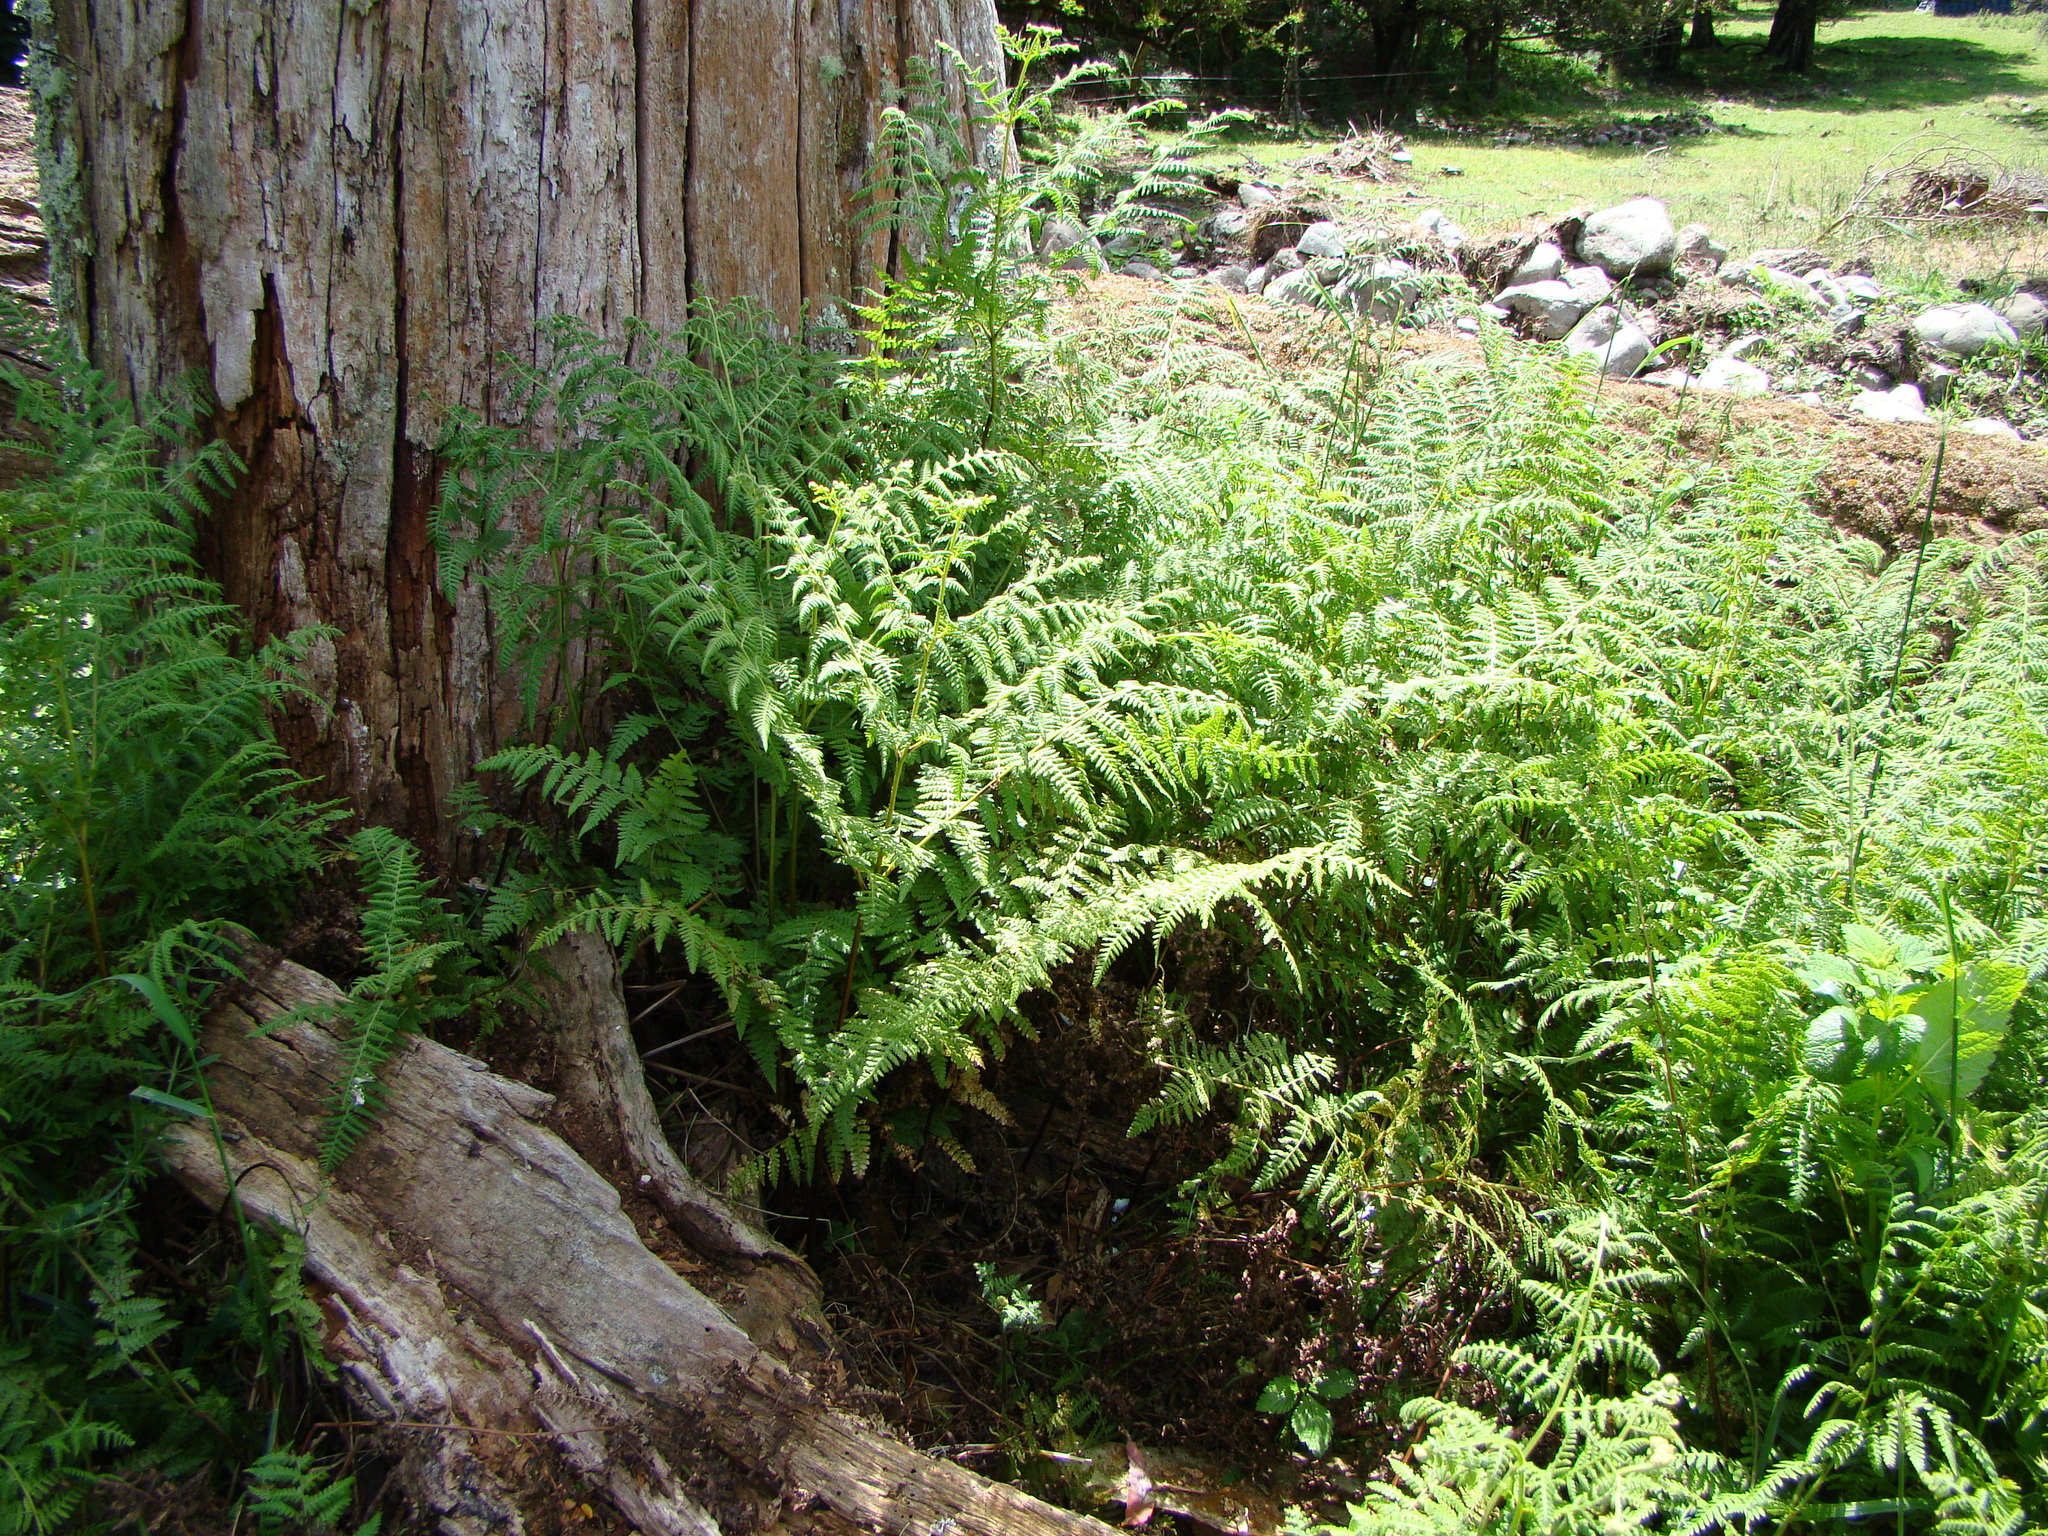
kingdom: Plantae
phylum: Tracheophyta
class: Polypodiopsida
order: Polypodiales
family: Dennstaedtiaceae
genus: Hypolepis
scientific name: Hypolepis ambigua
